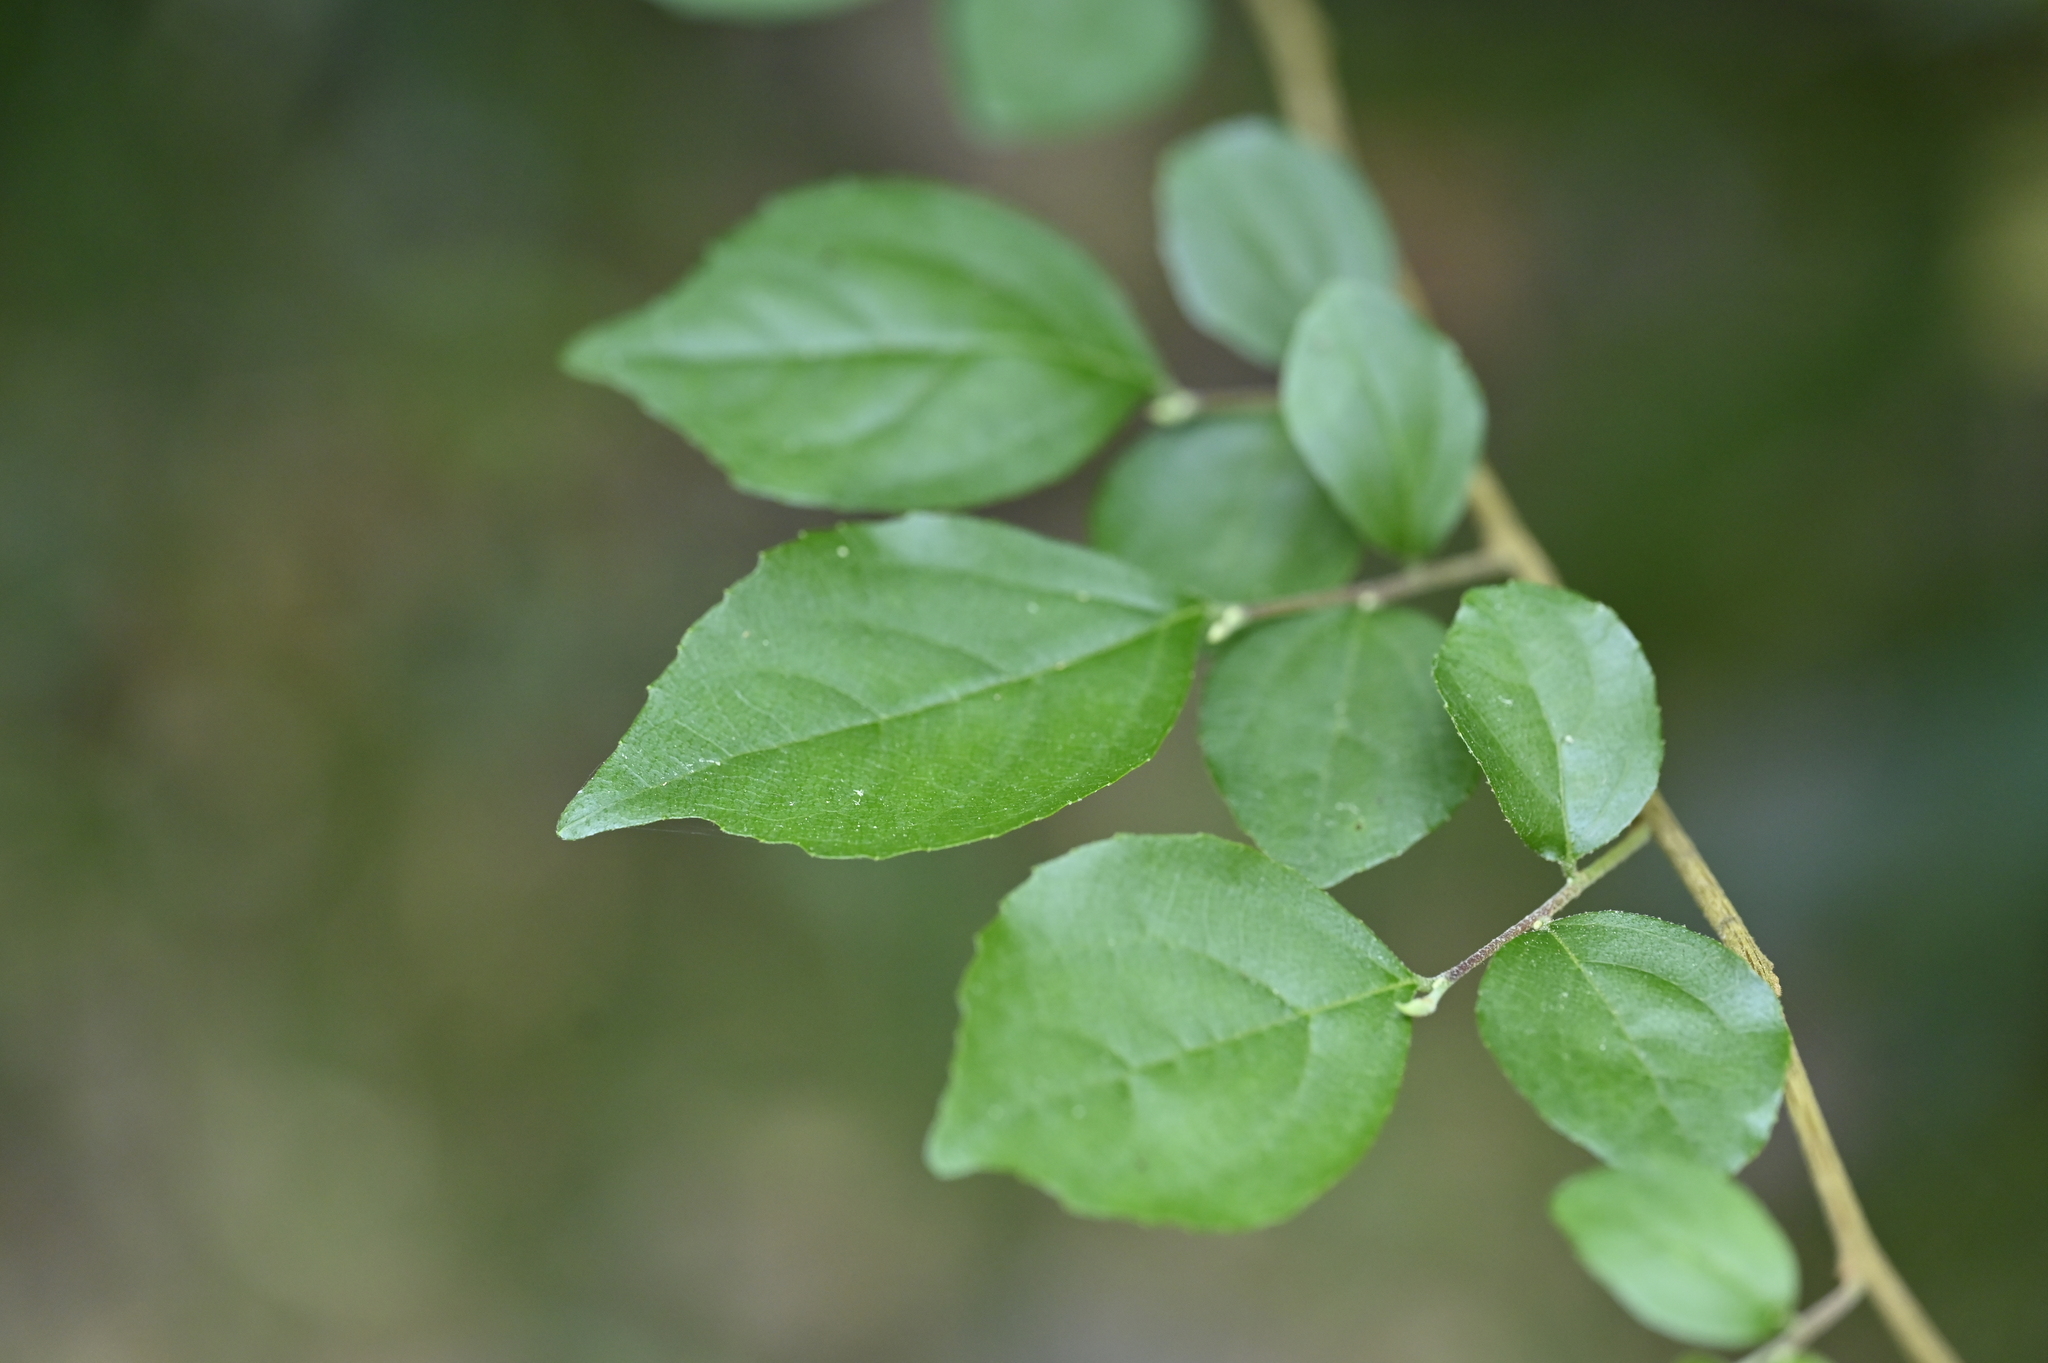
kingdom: Plantae
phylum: Tracheophyta
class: Magnoliopsida
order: Ericales
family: Styracaceae
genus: Styrax
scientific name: Styrax formosanus
